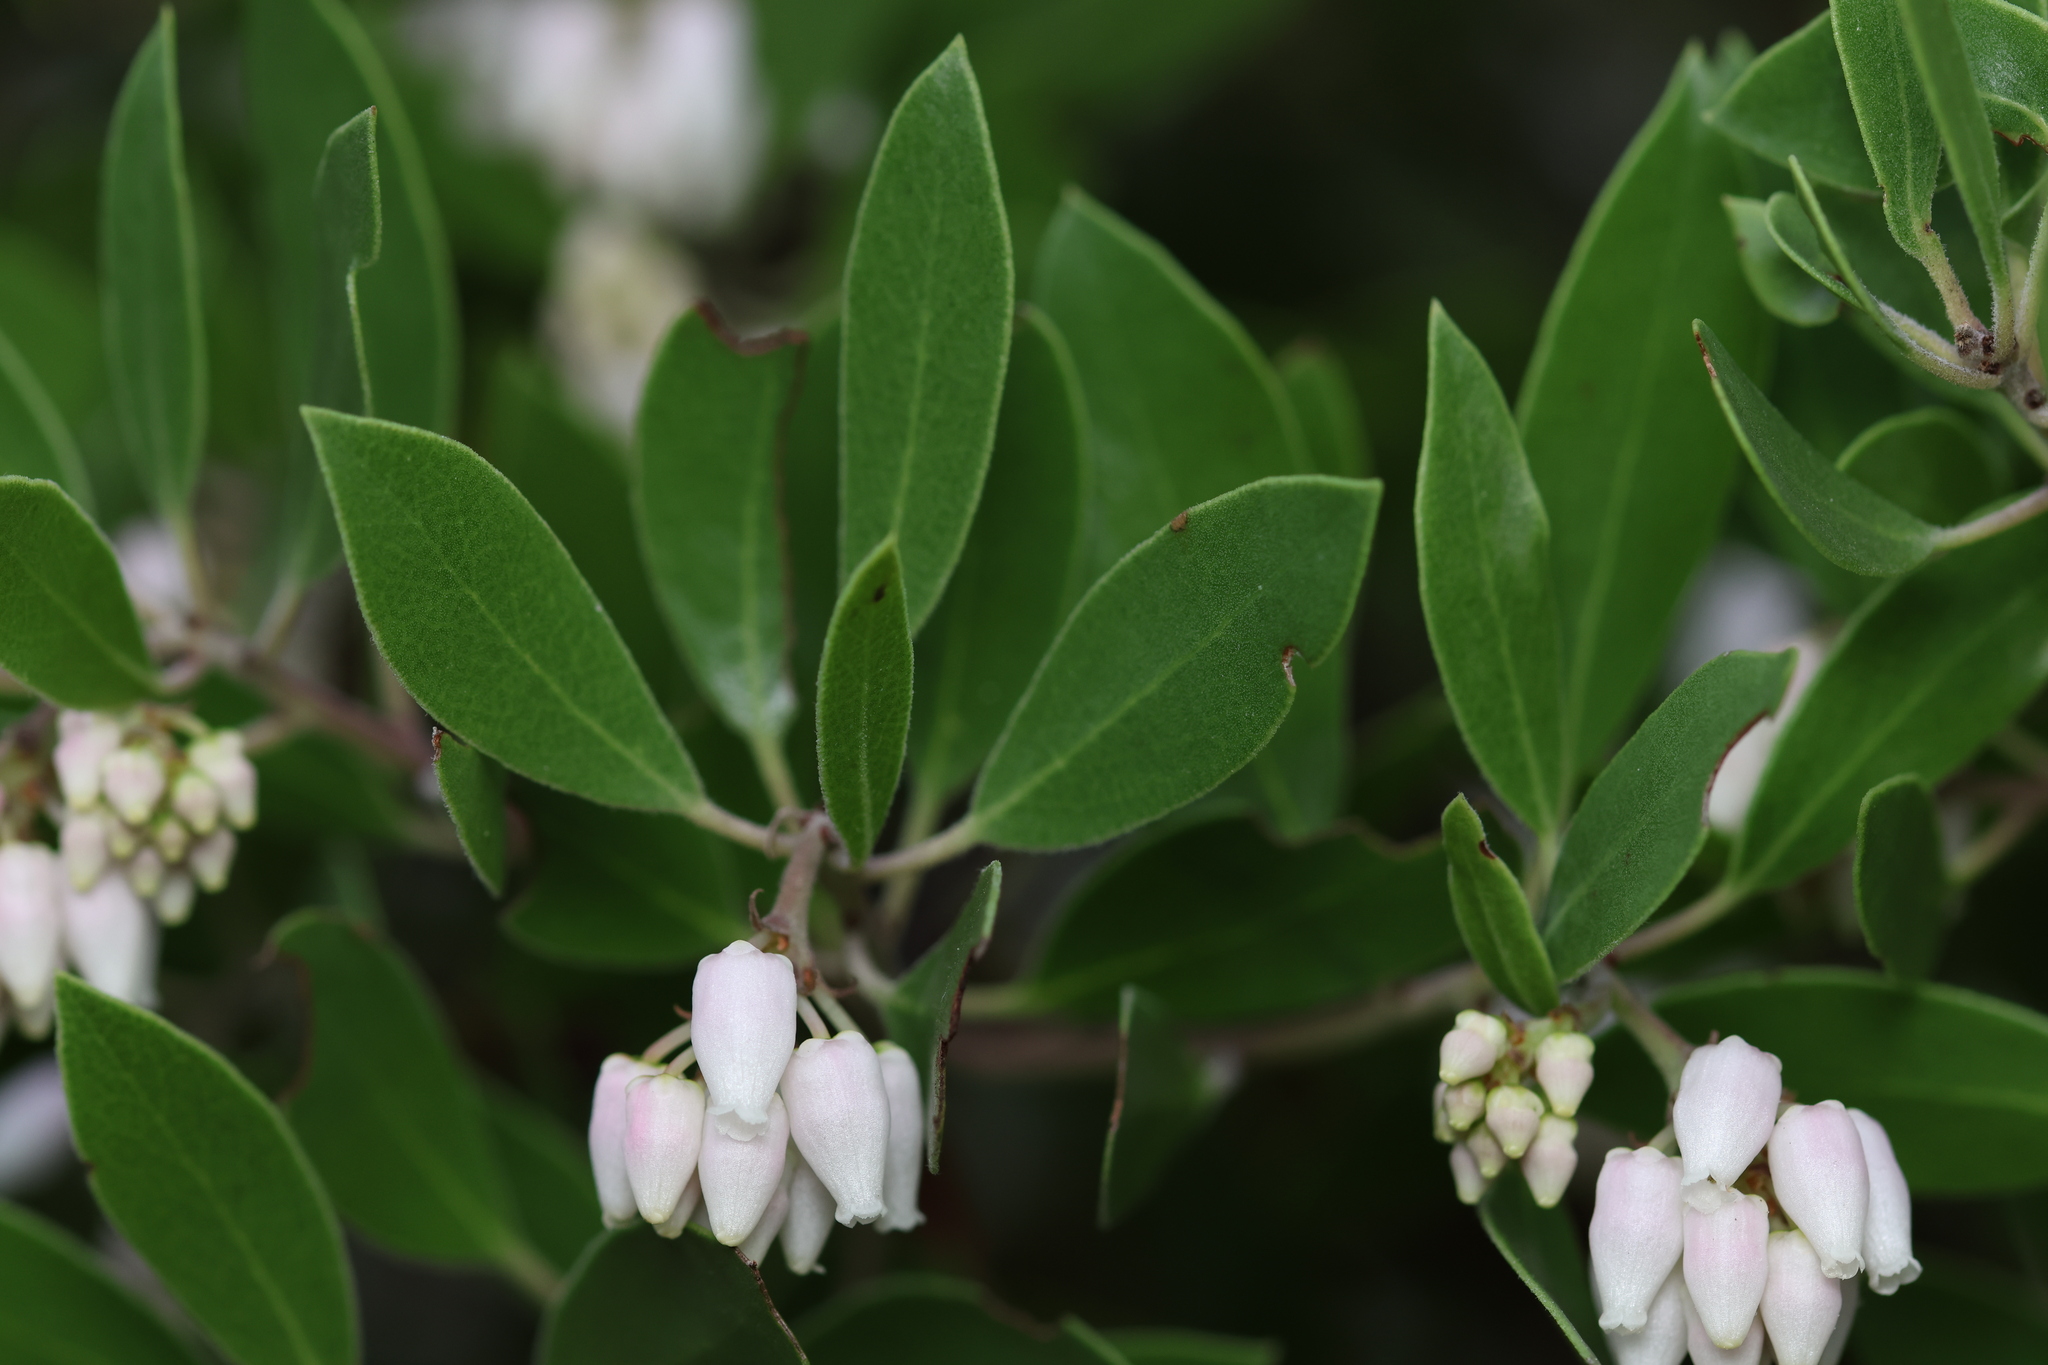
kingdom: Plantae
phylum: Tracheophyta
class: Magnoliopsida
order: Ericales
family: Ericaceae
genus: Arctostaphylos
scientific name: Arctostaphylos manzanita
